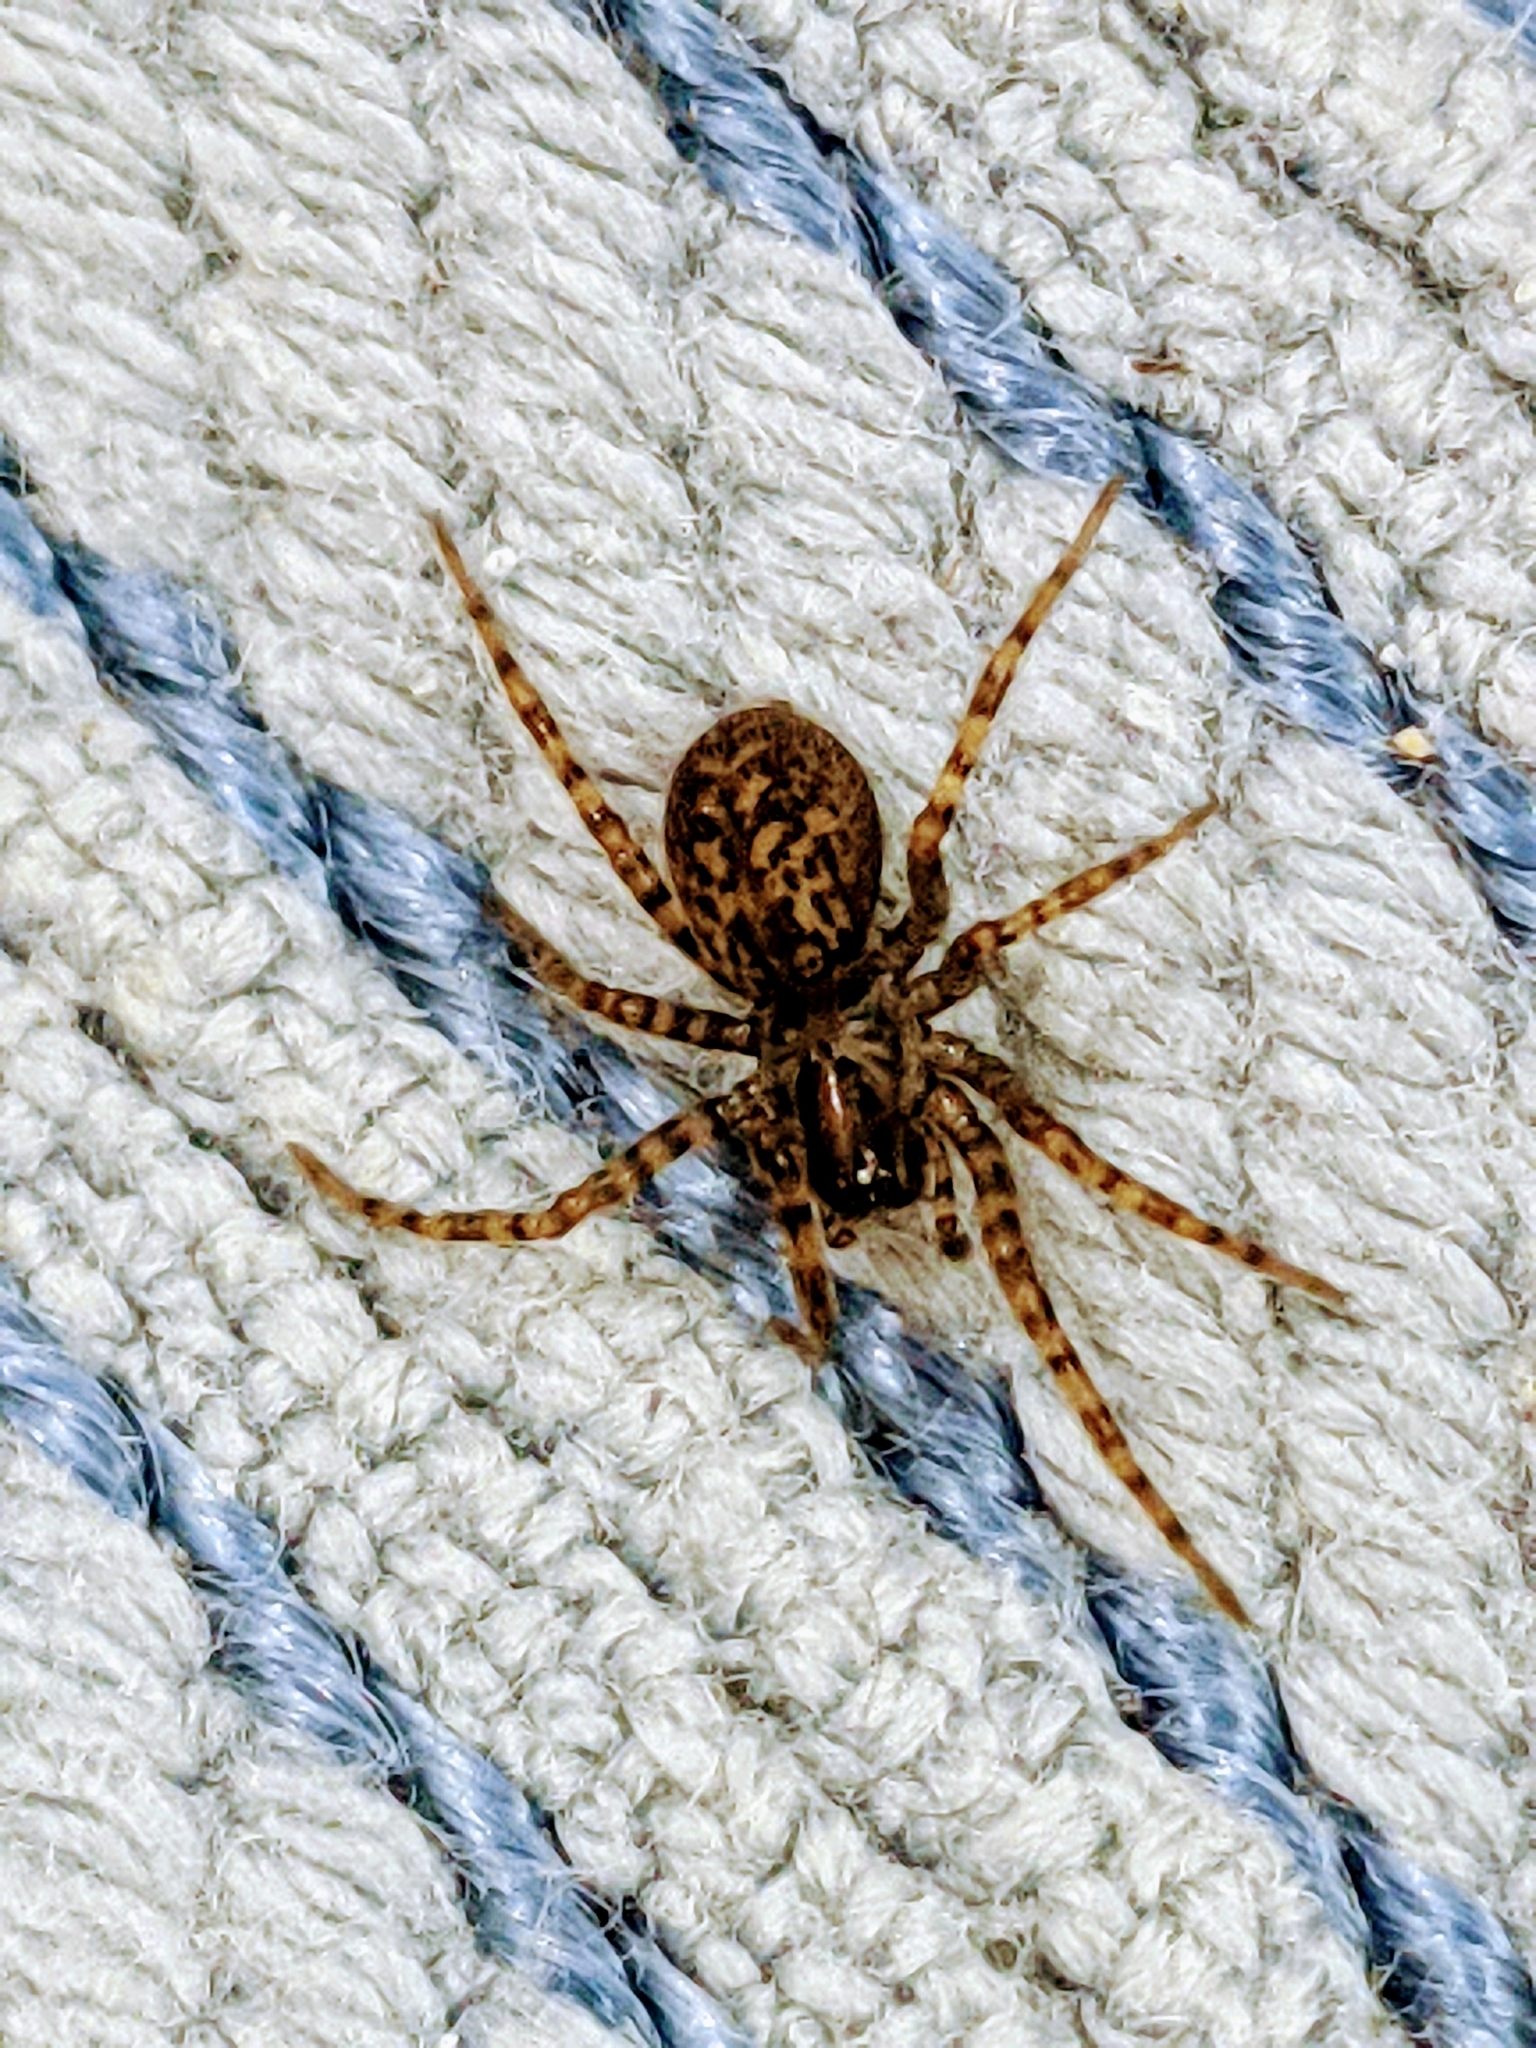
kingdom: Animalia
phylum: Arthropoda
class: Arachnida
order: Araneae
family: Agelenidae
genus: Coras
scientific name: Coras
